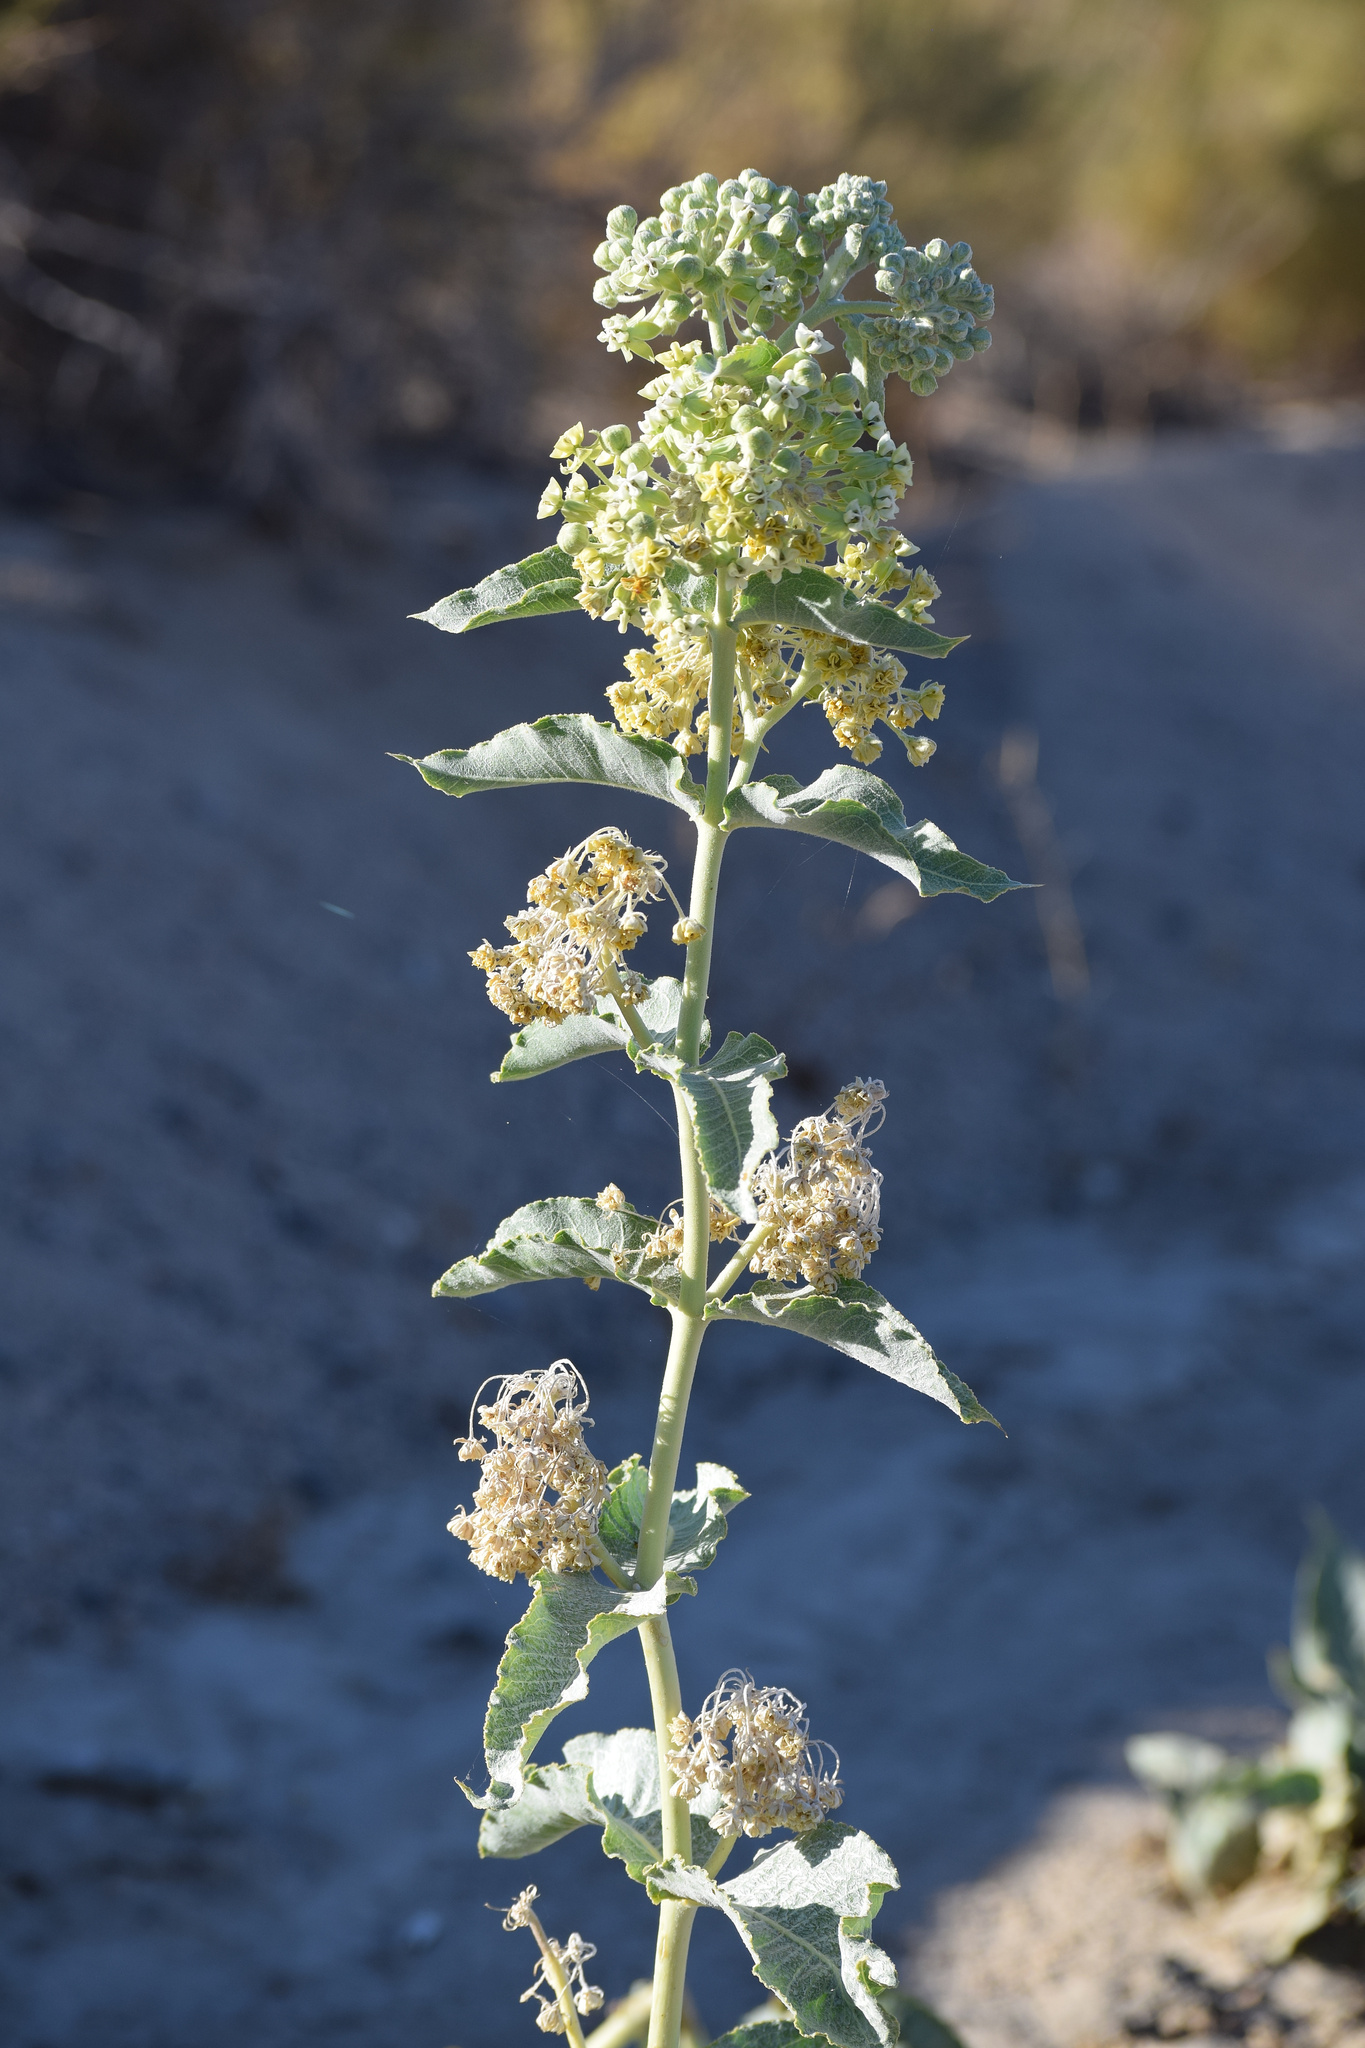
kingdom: Plantae
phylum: Tracheophyta
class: Magnoliopsida
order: Gentianales
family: Apocynaceae
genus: Asclepias
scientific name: Asclepias erosa
